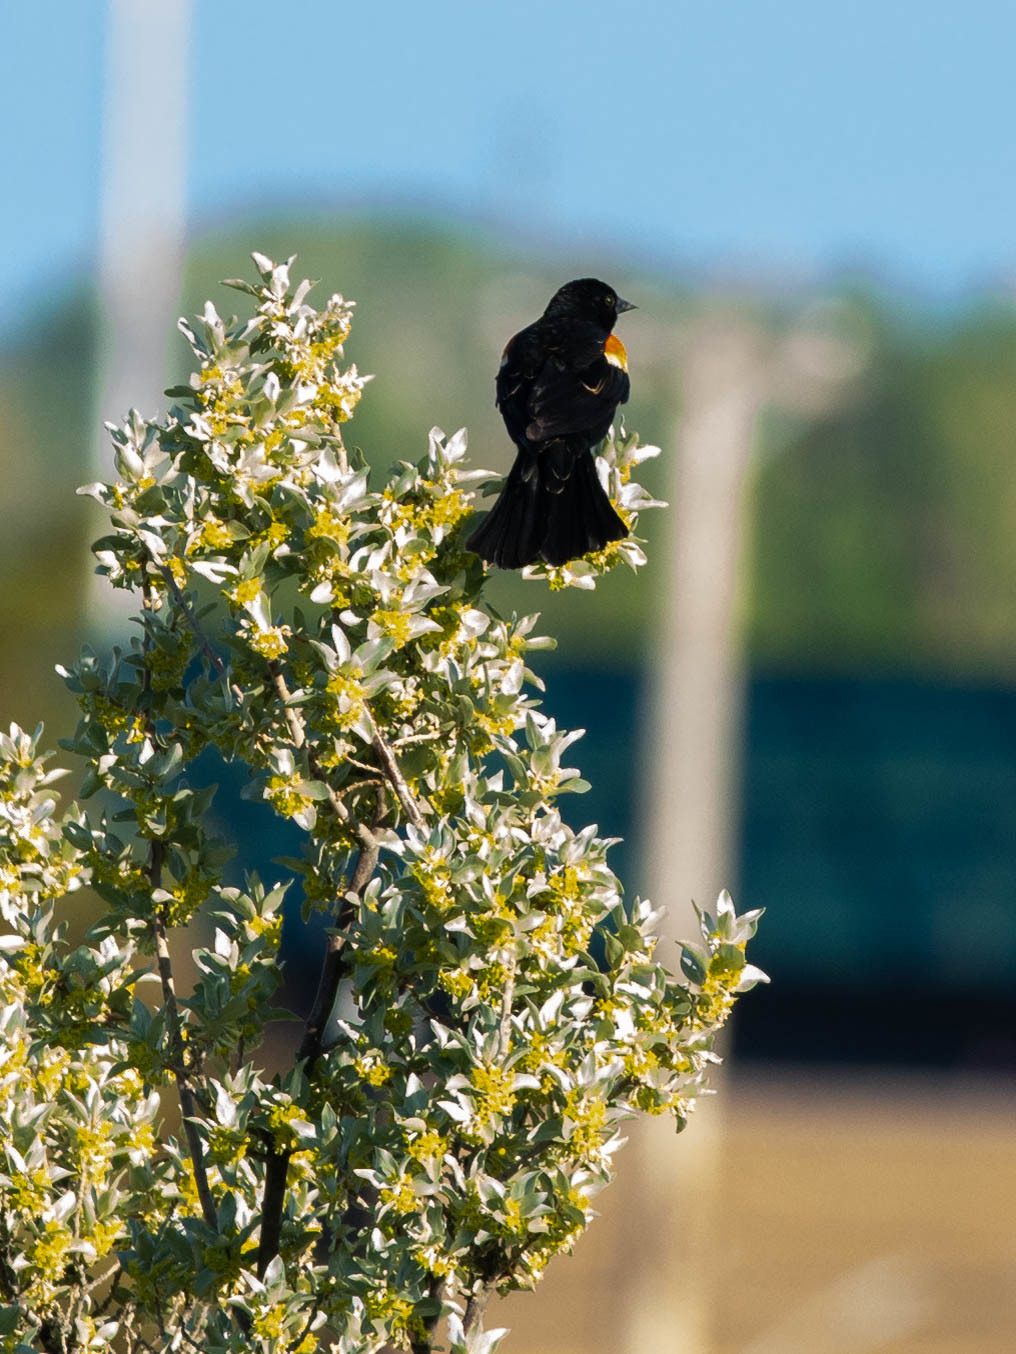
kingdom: Animalia
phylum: Chordata
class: Aves
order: Passeriformes
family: Icteridae
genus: Agelaius
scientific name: Agelaius phoeniceus
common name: Red-winged blackbird
